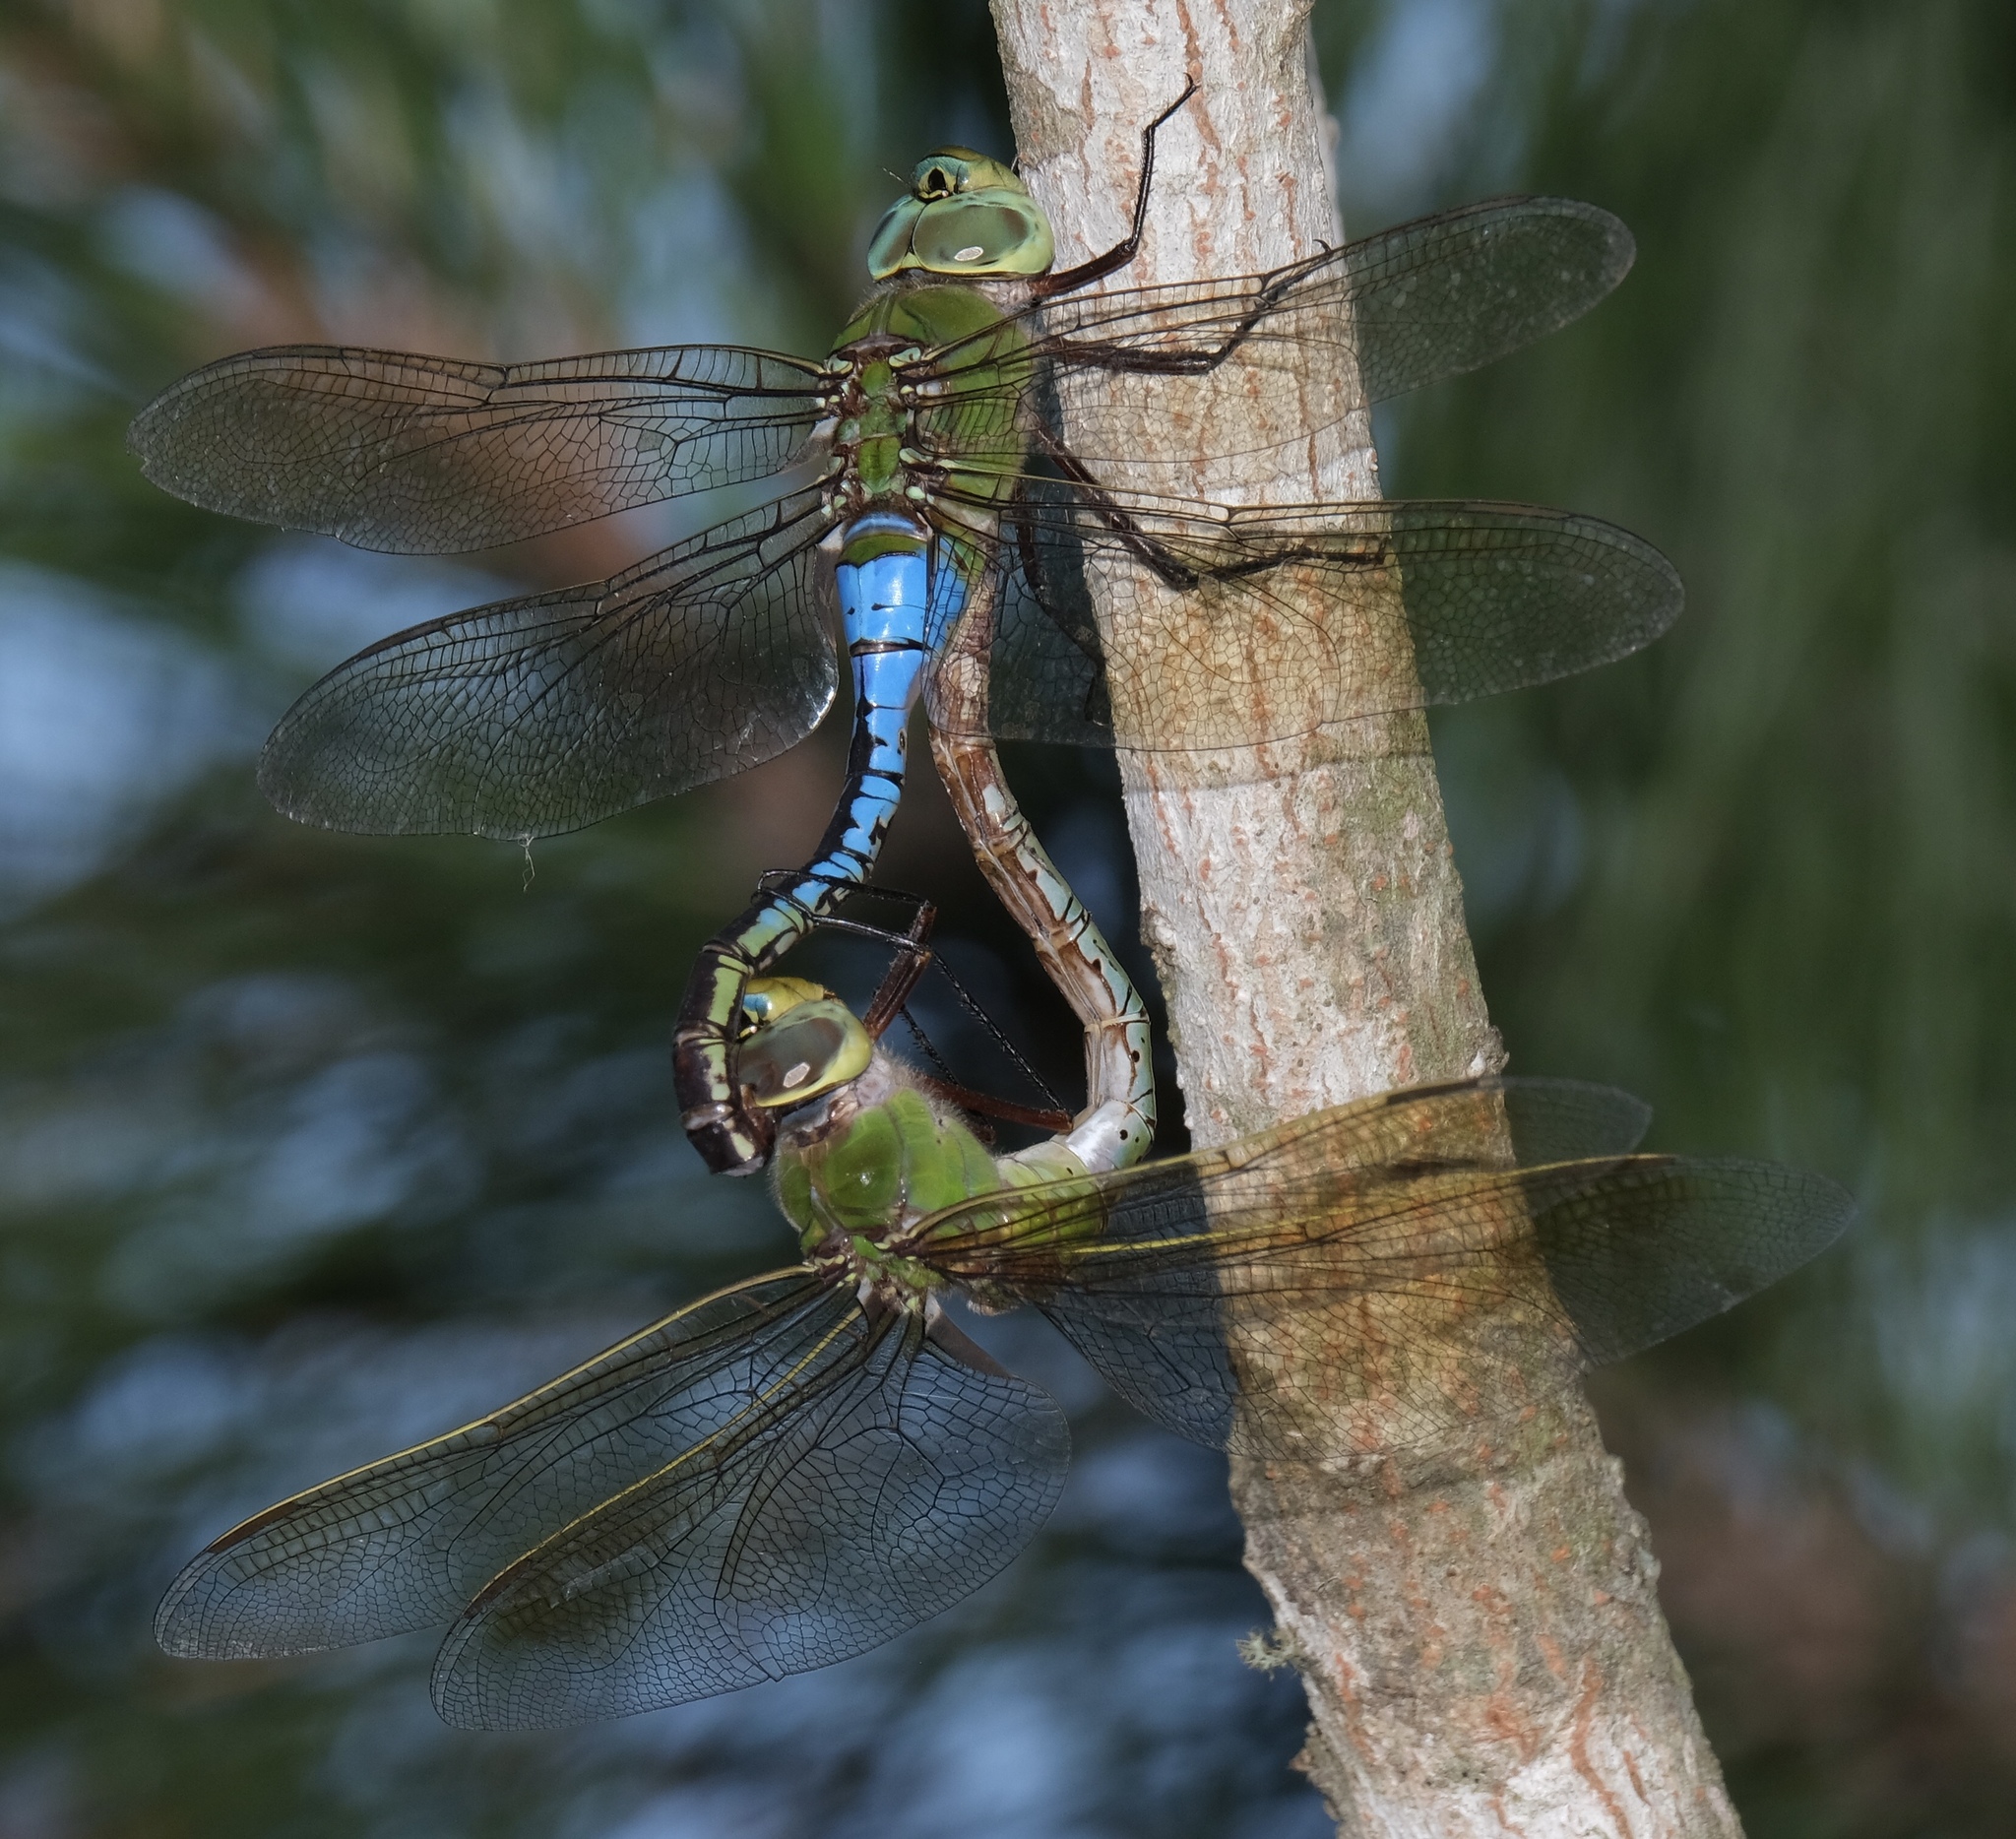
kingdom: Animalia
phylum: Arthropoda
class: Insecta
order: Odonata
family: Aeshnidae
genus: Anax
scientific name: Anax junius
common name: Common green darner
